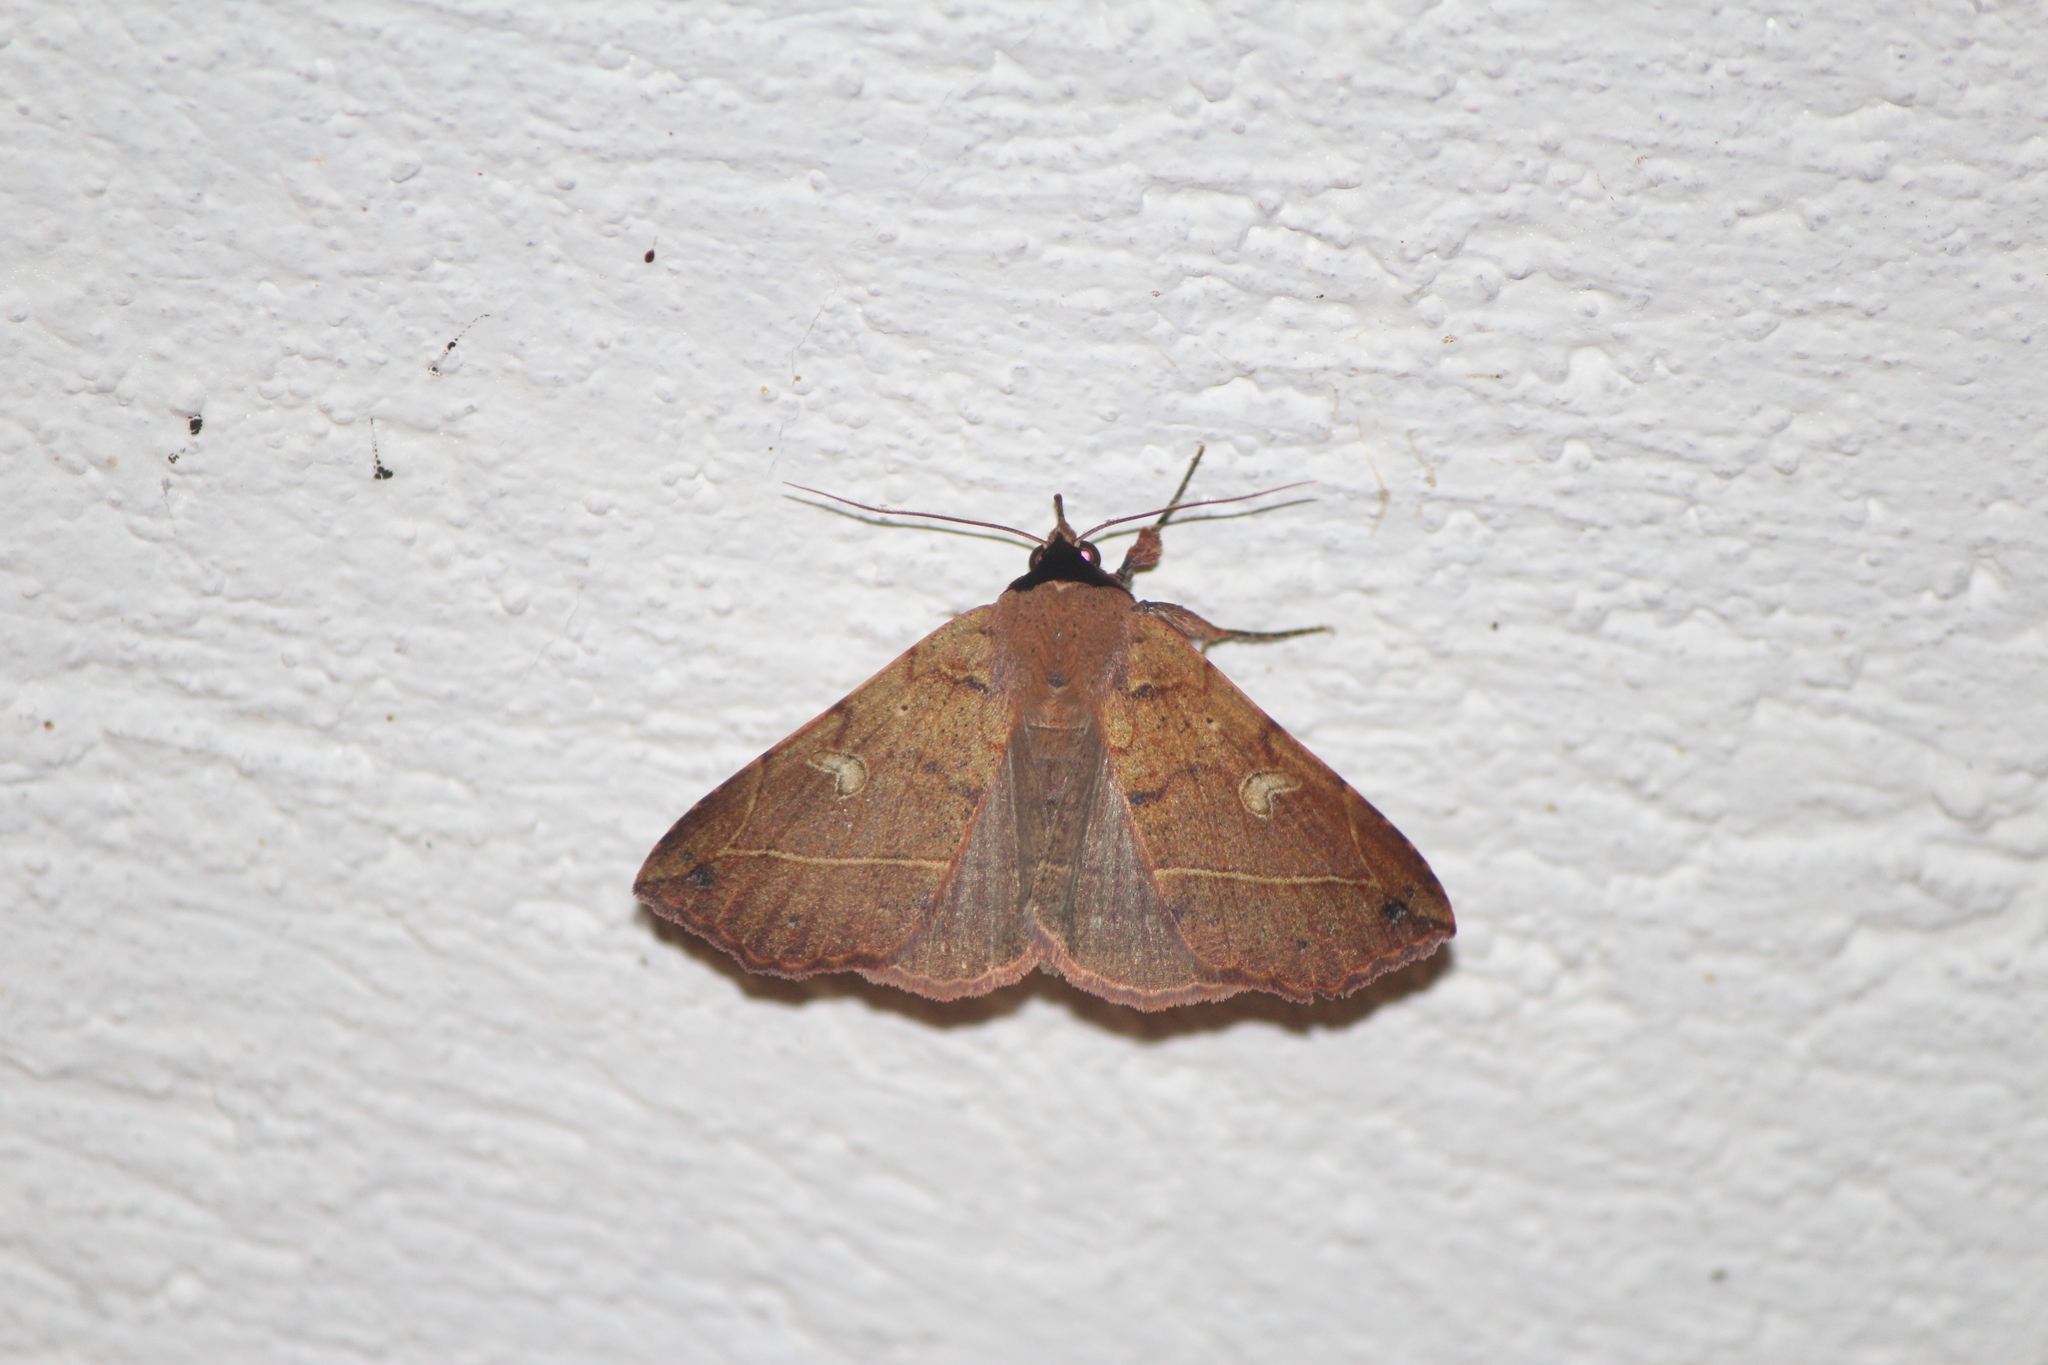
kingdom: Animalia
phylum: Arthropoda
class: Insecta
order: Lepidoptera
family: Erebidae
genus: Goniocarsia
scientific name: Goniocarsia electrica
